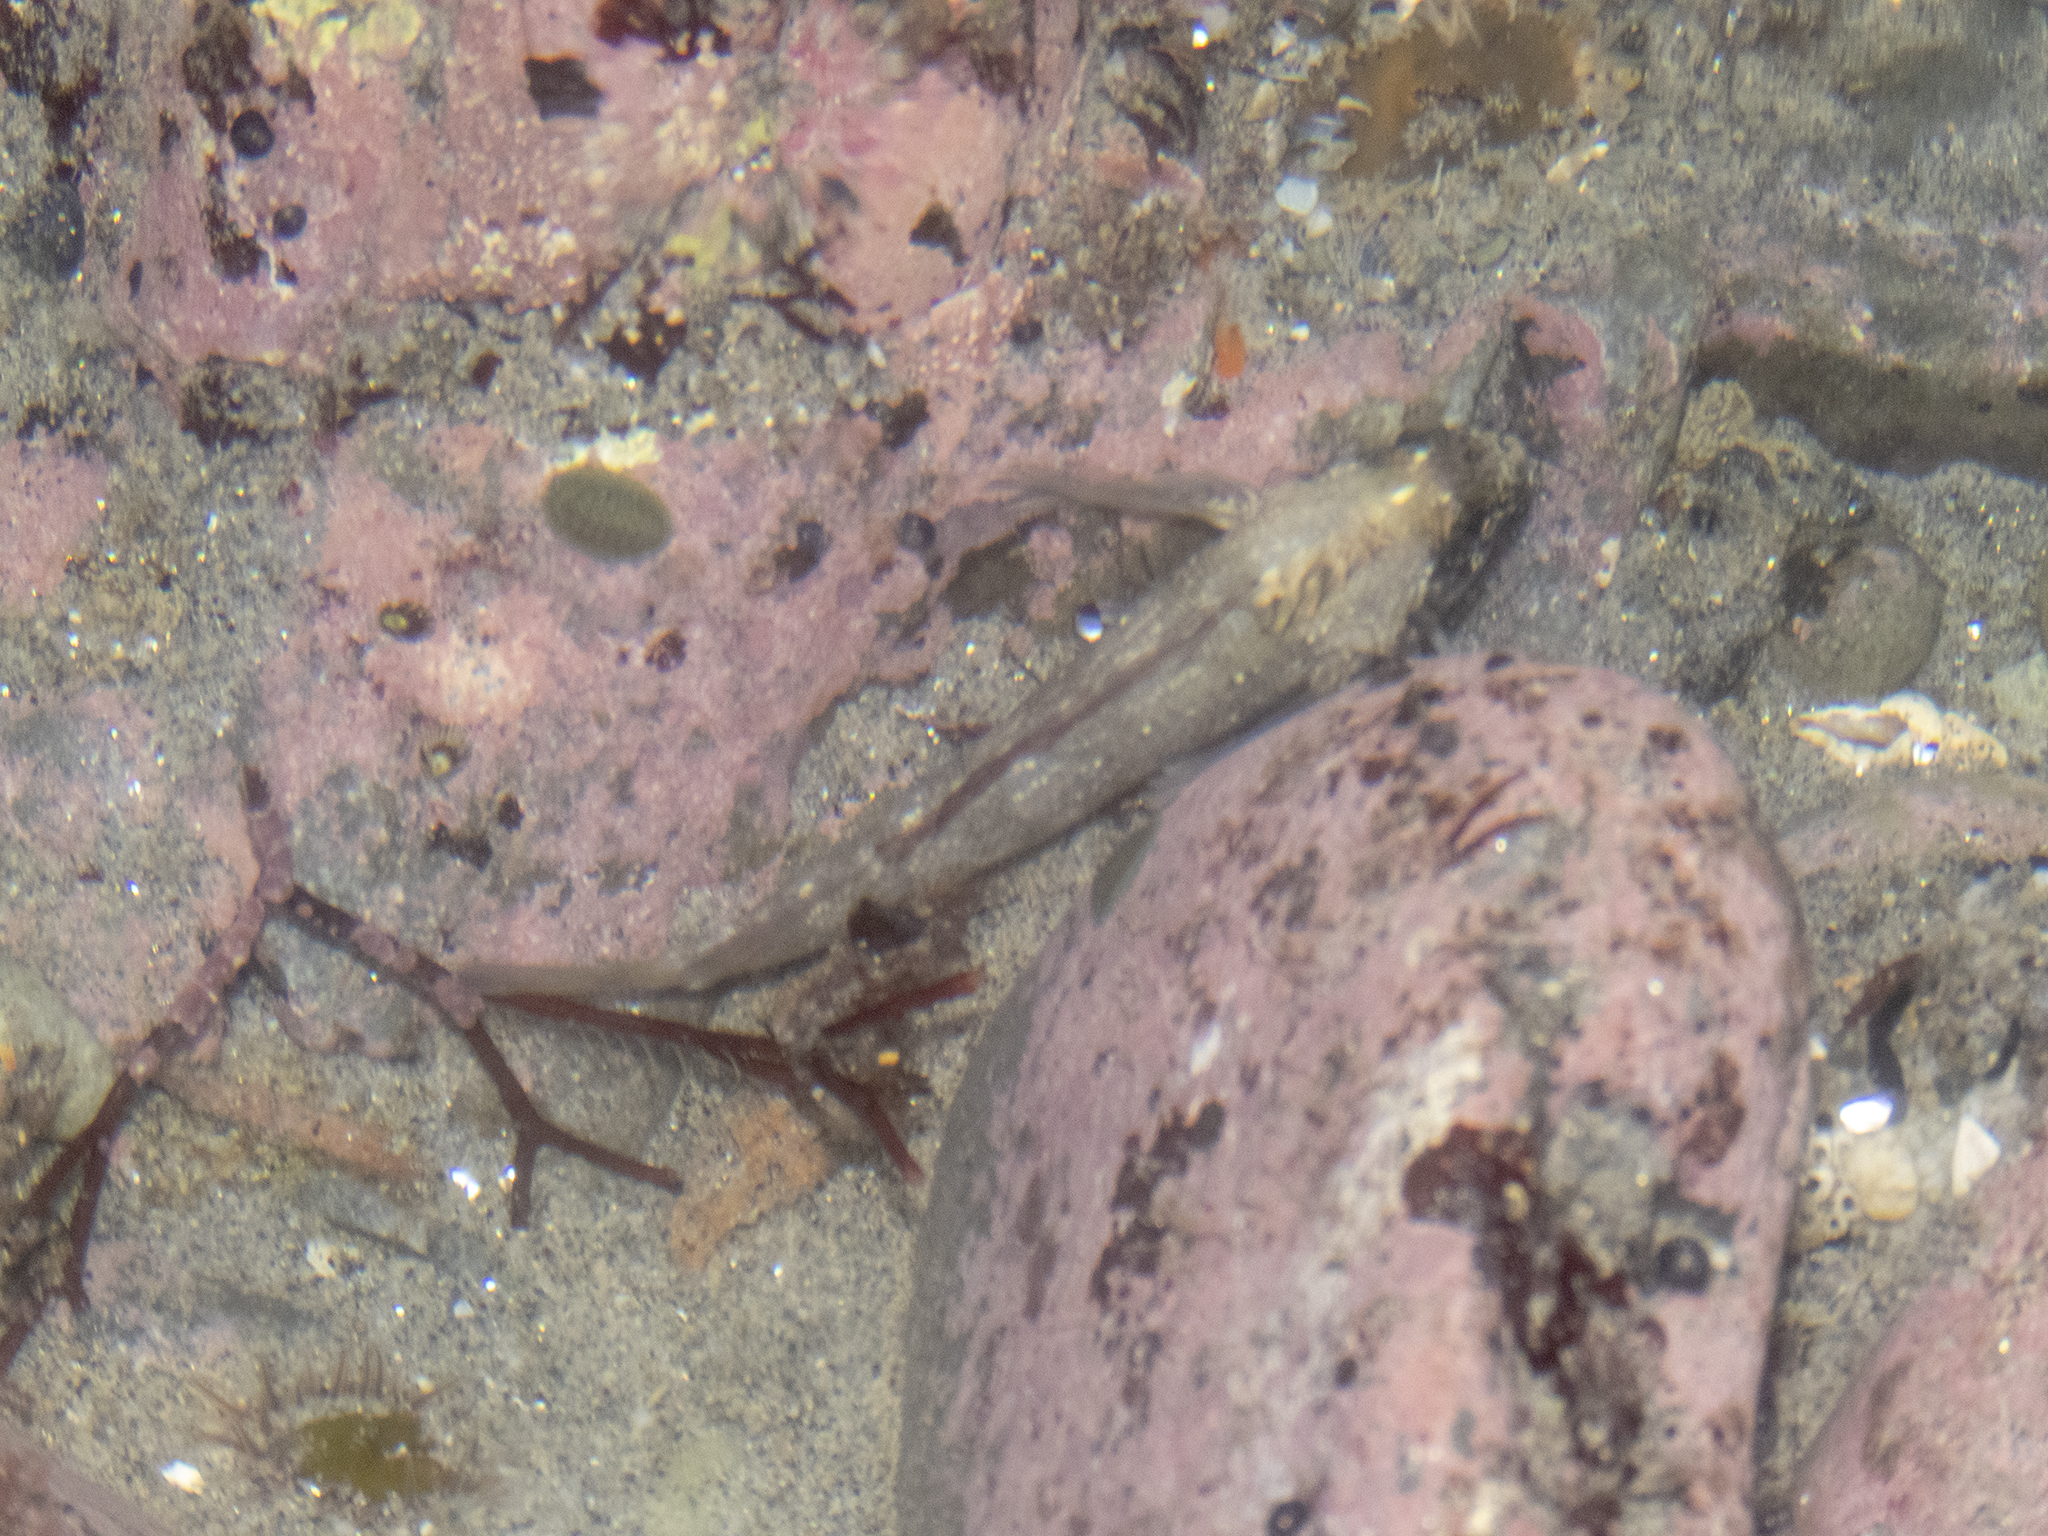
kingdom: Animalia
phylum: Chordata
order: Perciformes
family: Tripterygiidae
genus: Forsterygion
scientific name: Forsterygion lapillum
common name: Common triplefin
